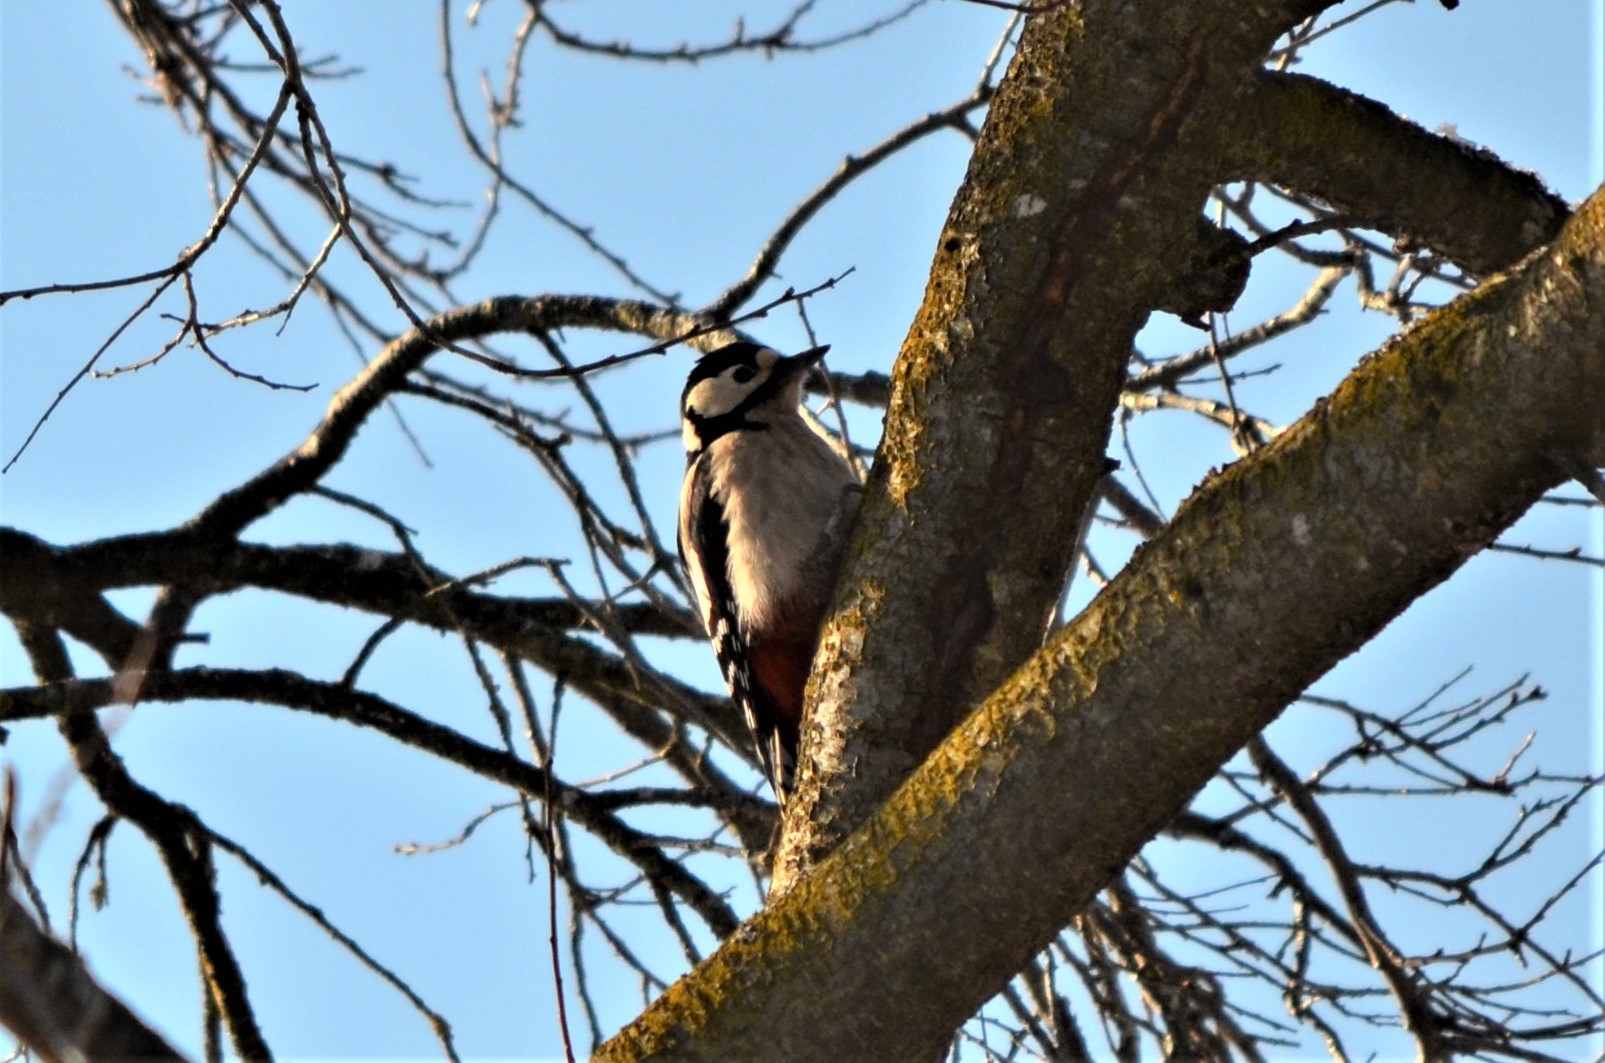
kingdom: Animalia
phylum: Chordata
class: Aves
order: Piciformes
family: Picidae
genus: Dendrocopos
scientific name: Dendrocopos major
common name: Great spotted woodpecker
